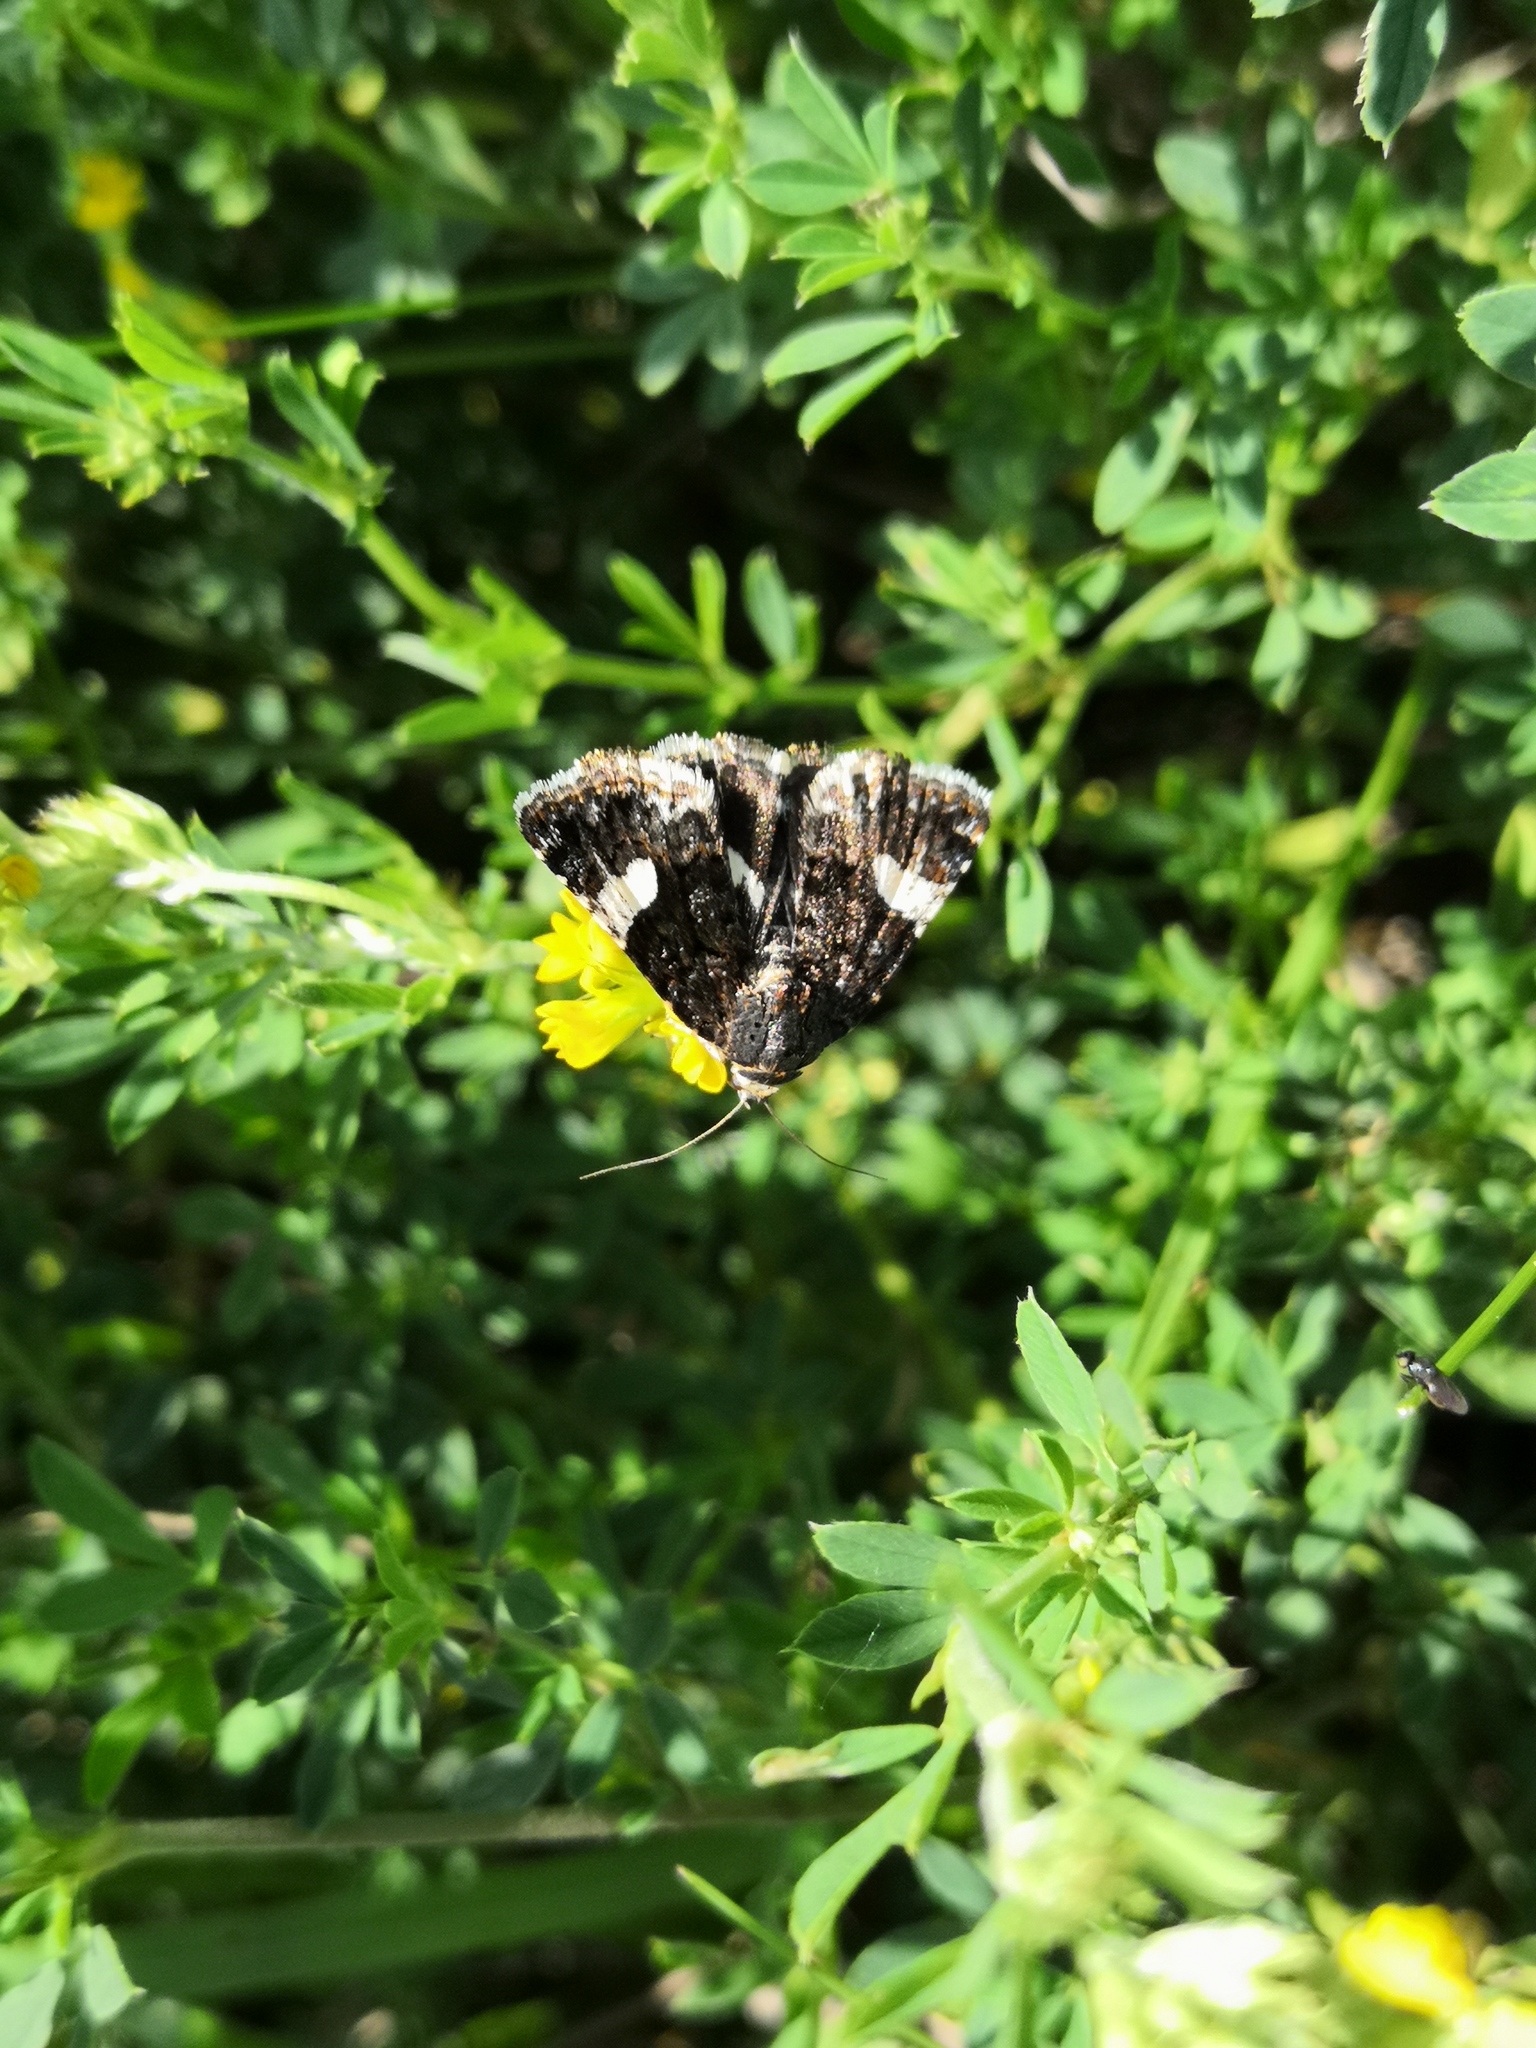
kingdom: Animalia
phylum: Arthropoda
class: Insecta
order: Lepidoptera
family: Erebidae
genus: Tyta
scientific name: Tyta luctuosa
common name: Four-spotted
